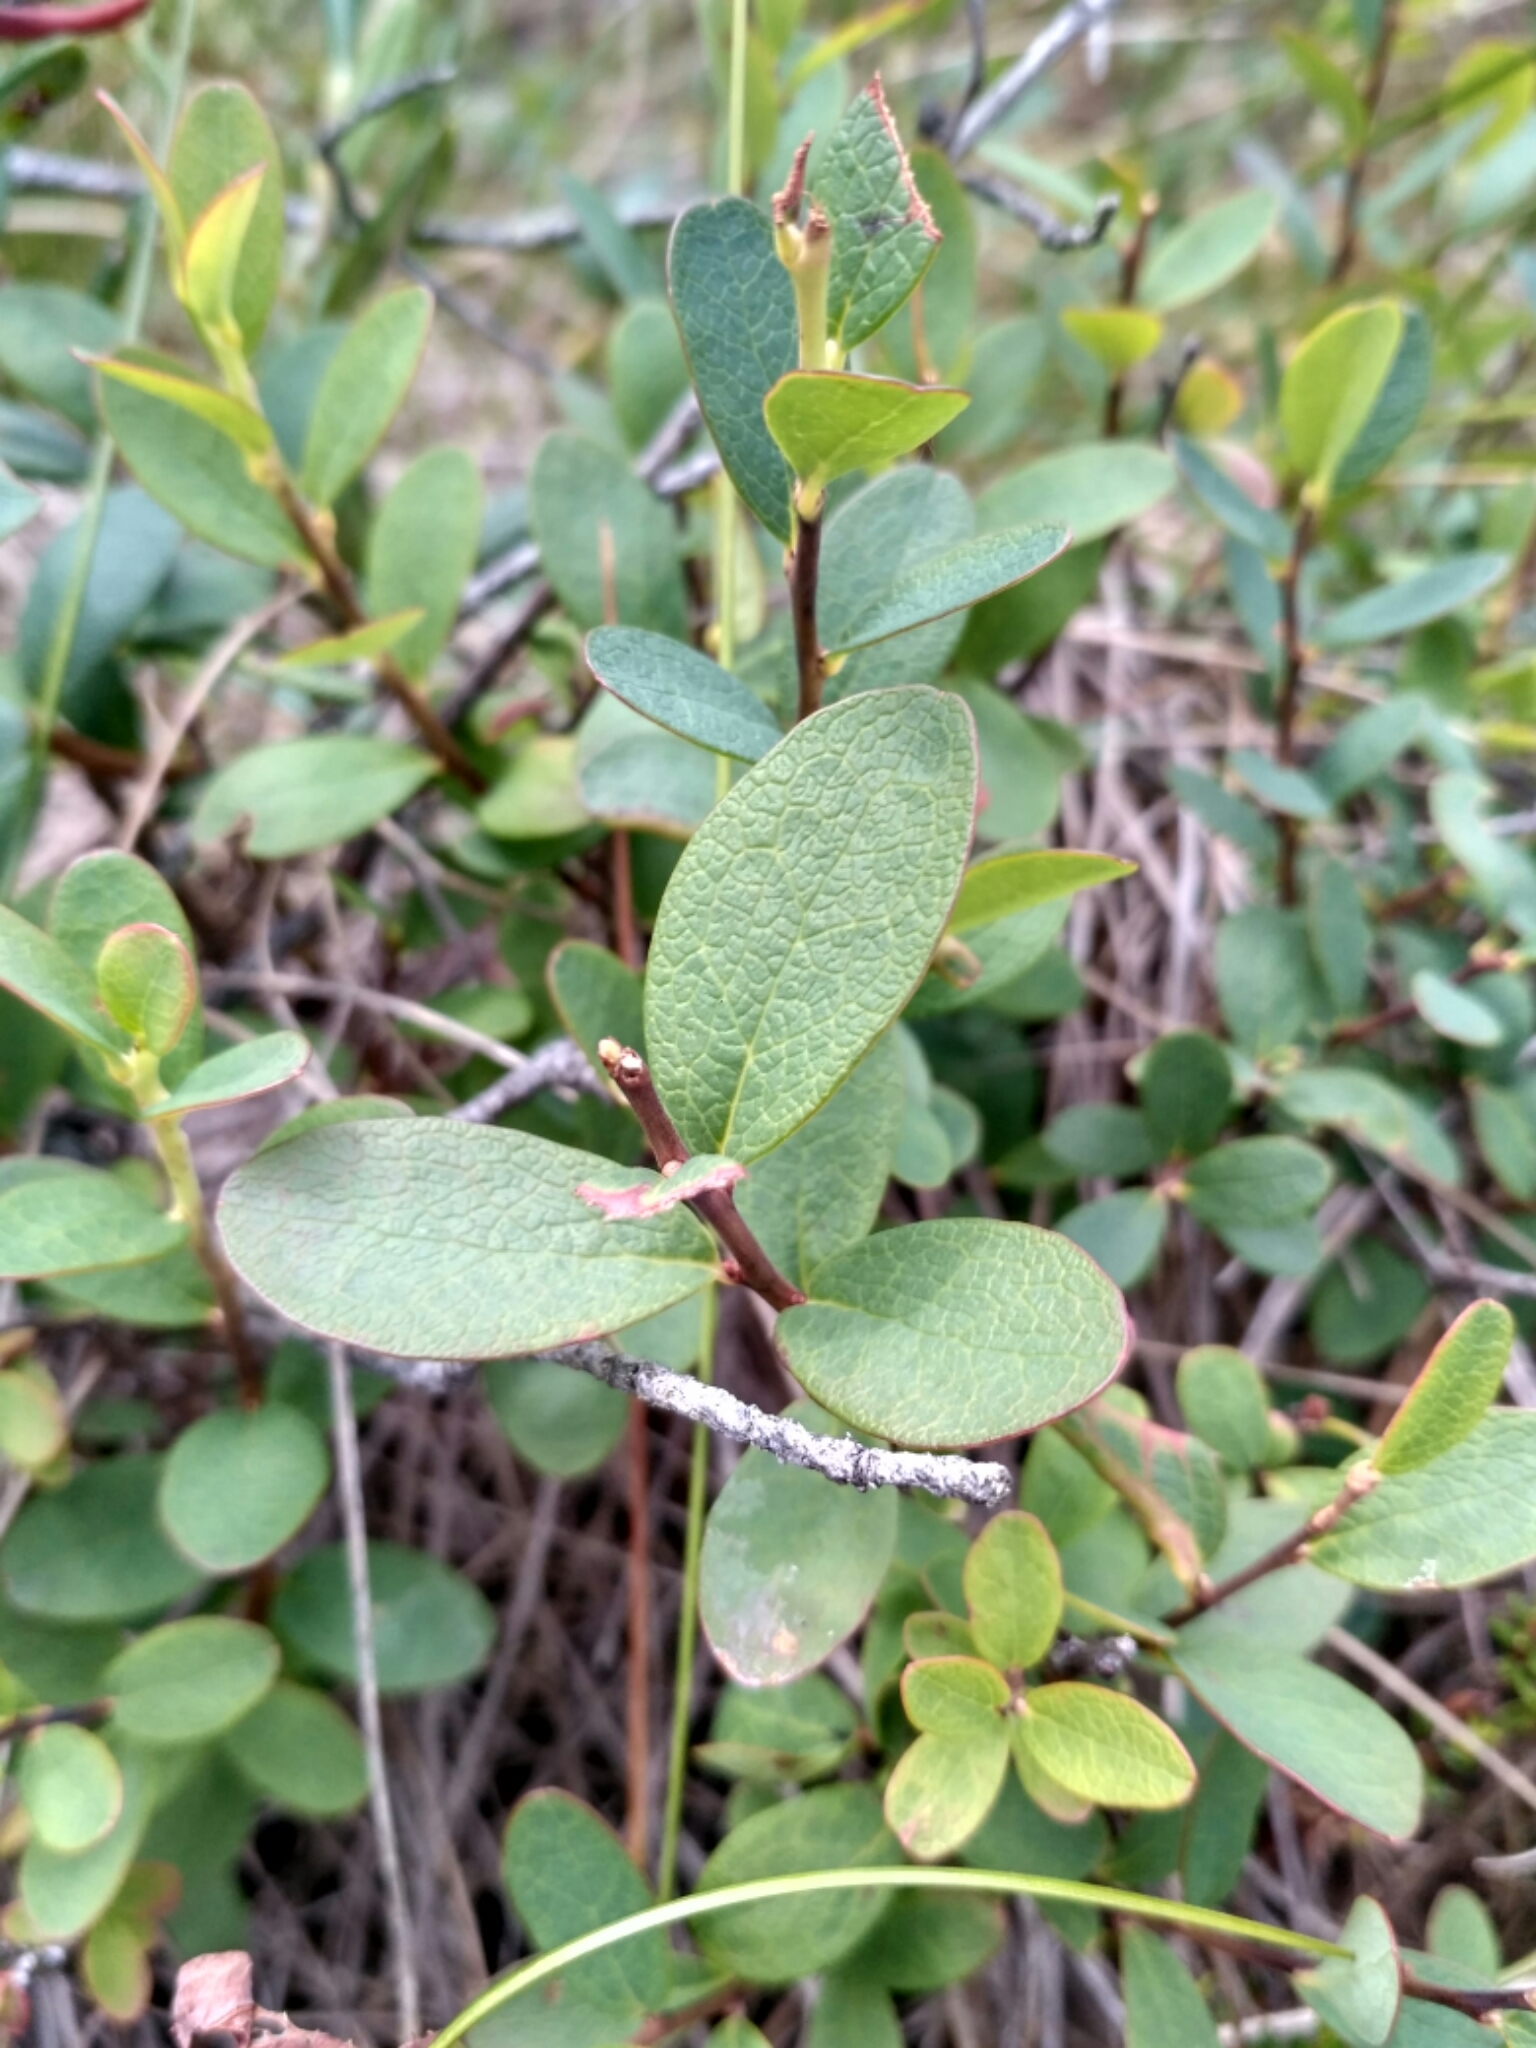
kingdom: Plantae
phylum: Tracheophyta
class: Magnoliopsida
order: Ericales
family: Ericaceae
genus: Vaccinium
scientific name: Vaccinium uliginosum
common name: Bog bilberry
